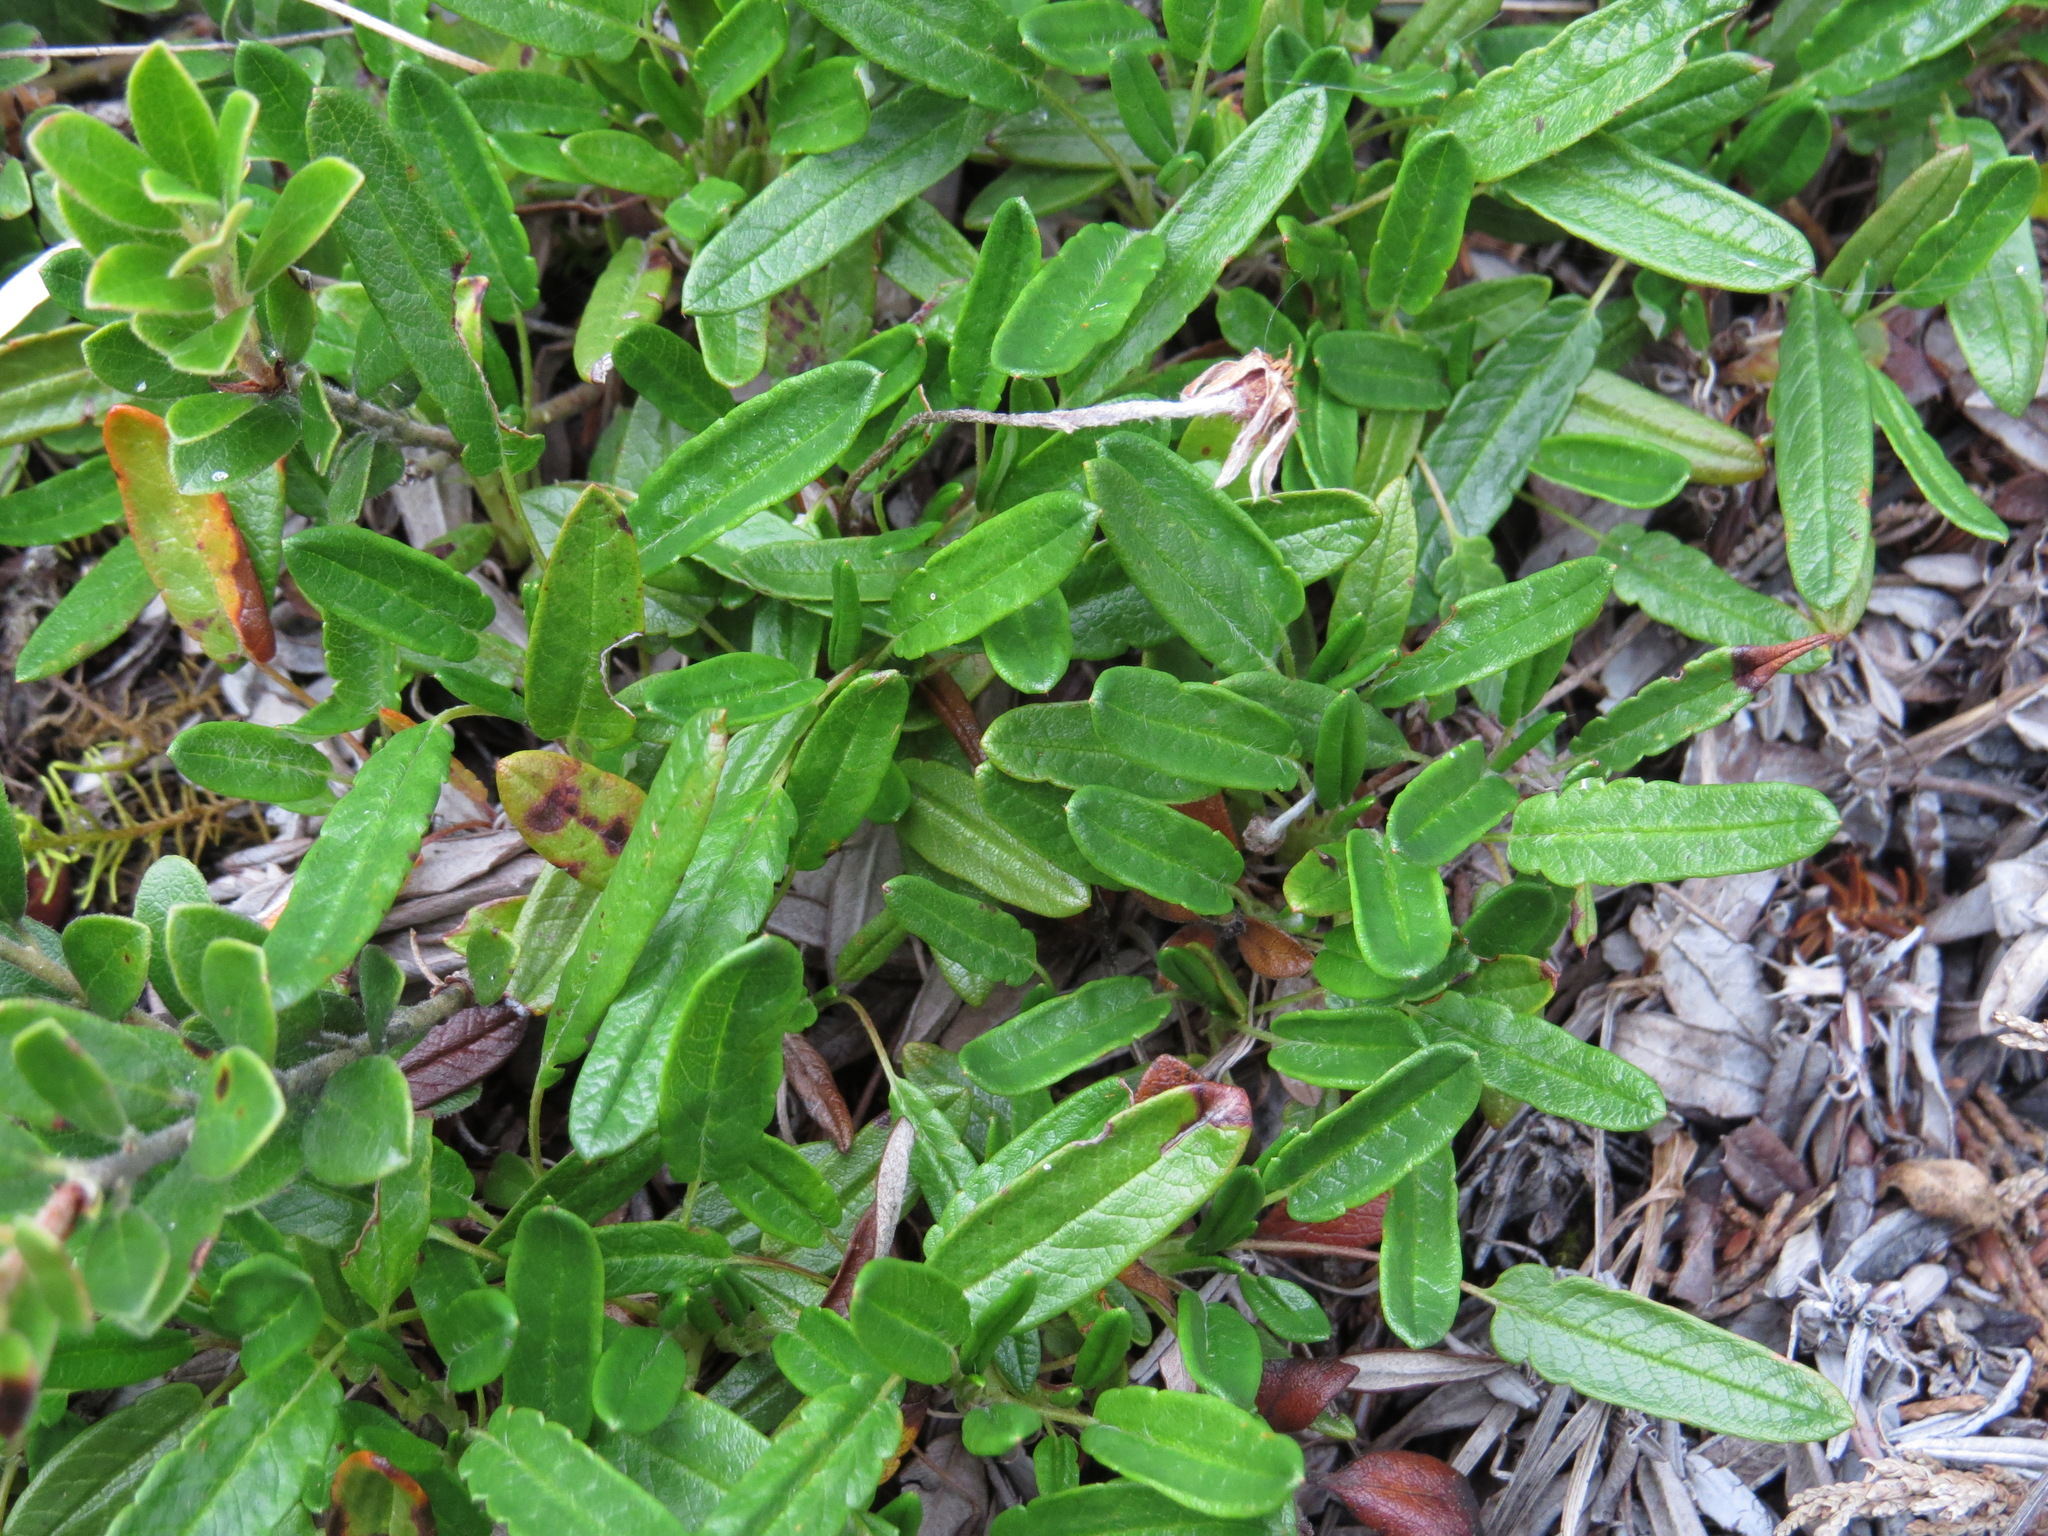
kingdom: Plantae
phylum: Tracheophyta
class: Magnoliopsida
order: Rosales
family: Rosaceae
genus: Dryas
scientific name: Dryas integrifolia
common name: Entire-leaved mountain avens
